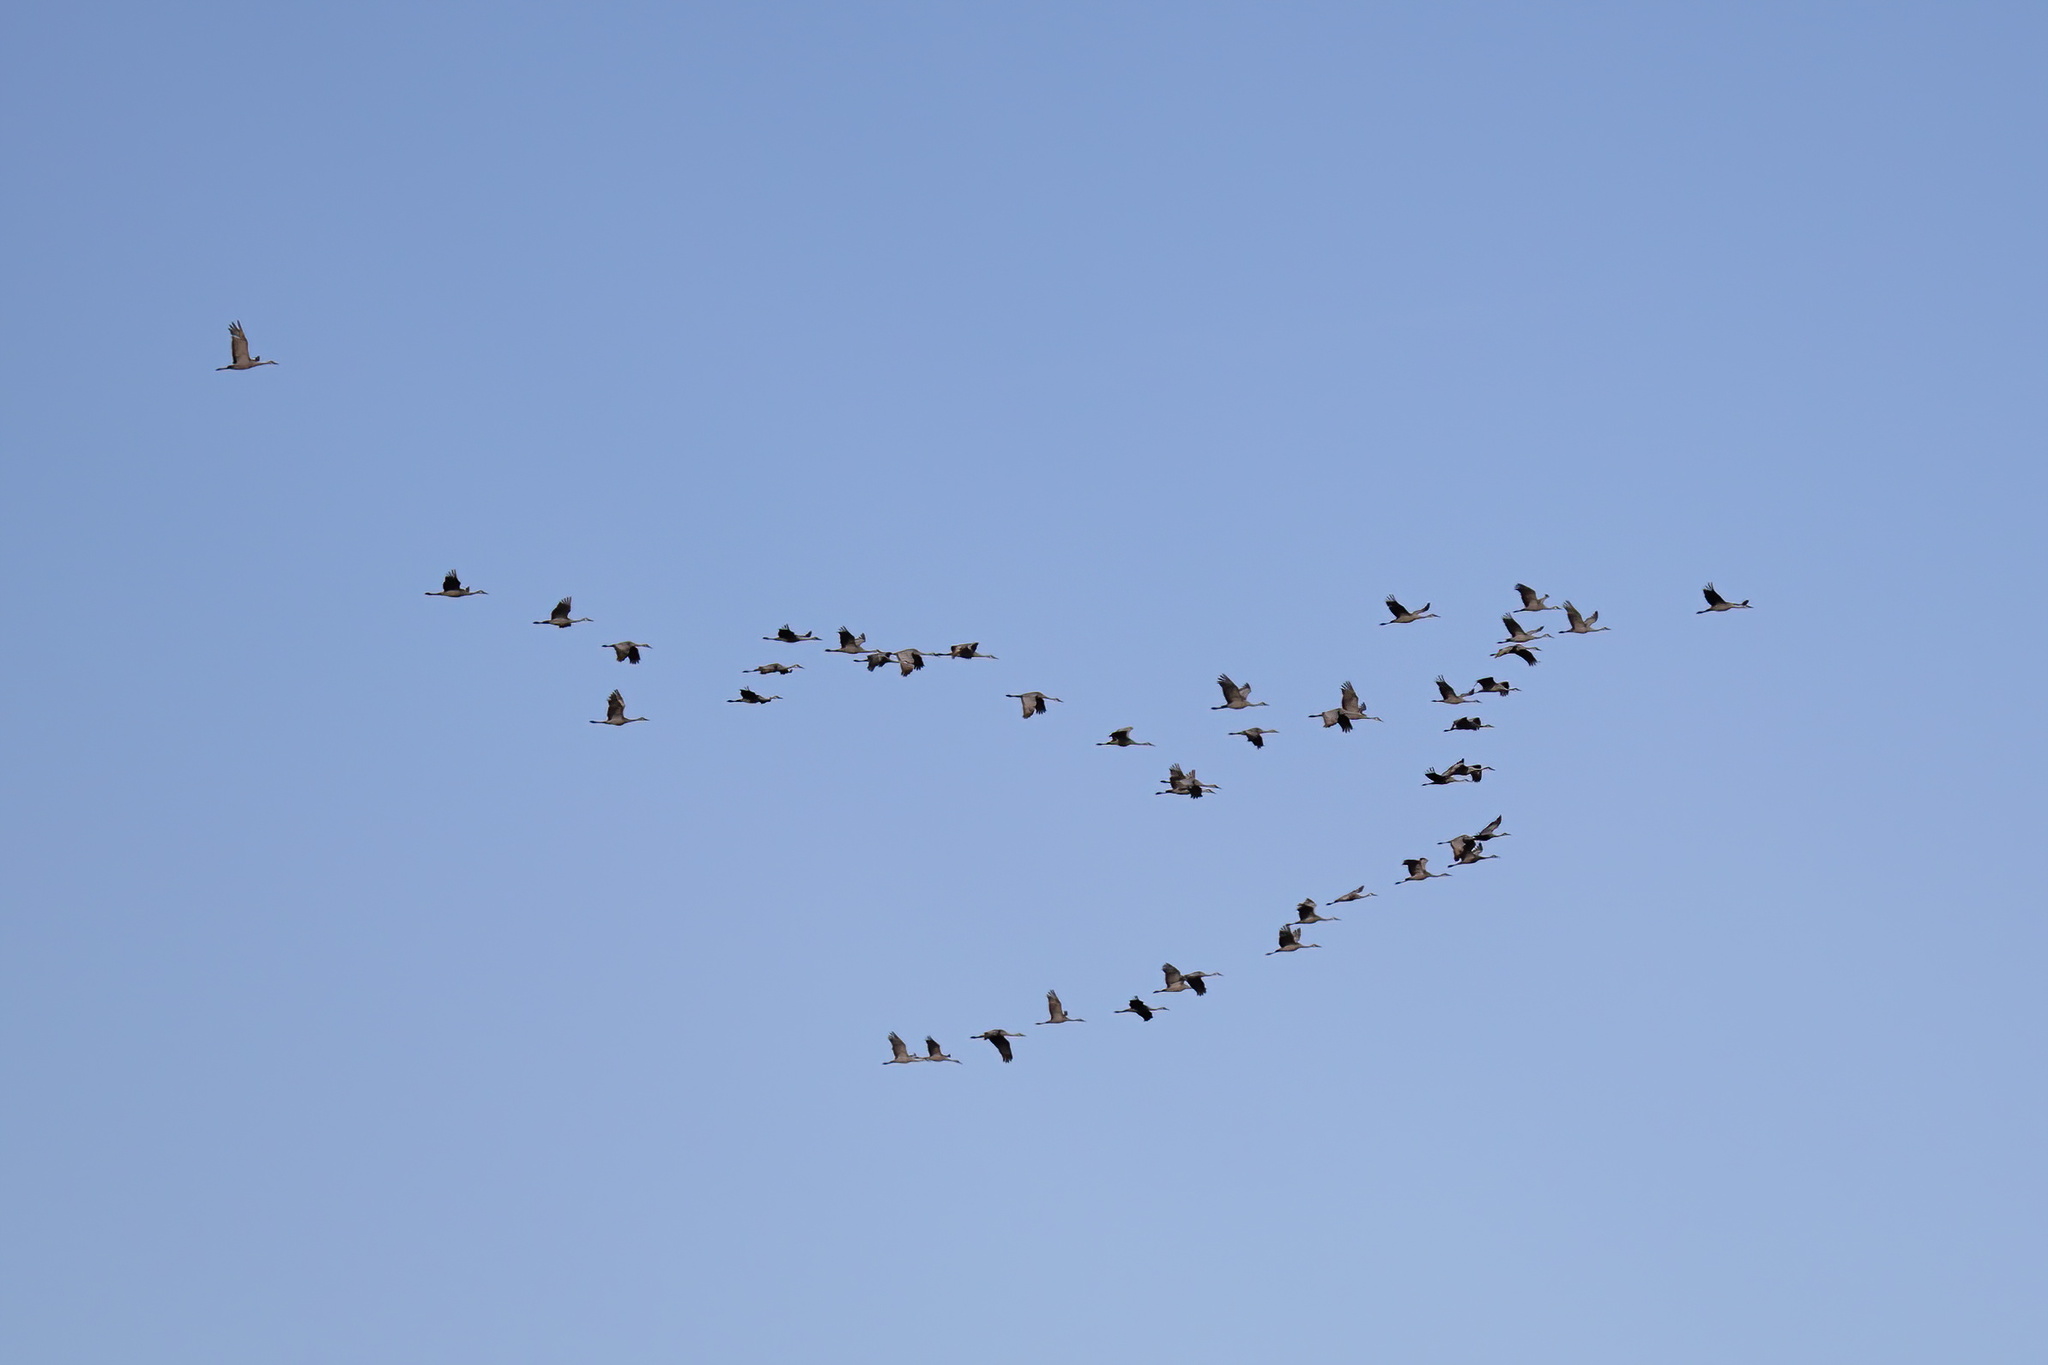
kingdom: Animalia
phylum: Chordata
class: Aves
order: Gruiformes
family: Gruidae
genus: Grus
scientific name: Grus canadensis
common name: Sandhill crane
